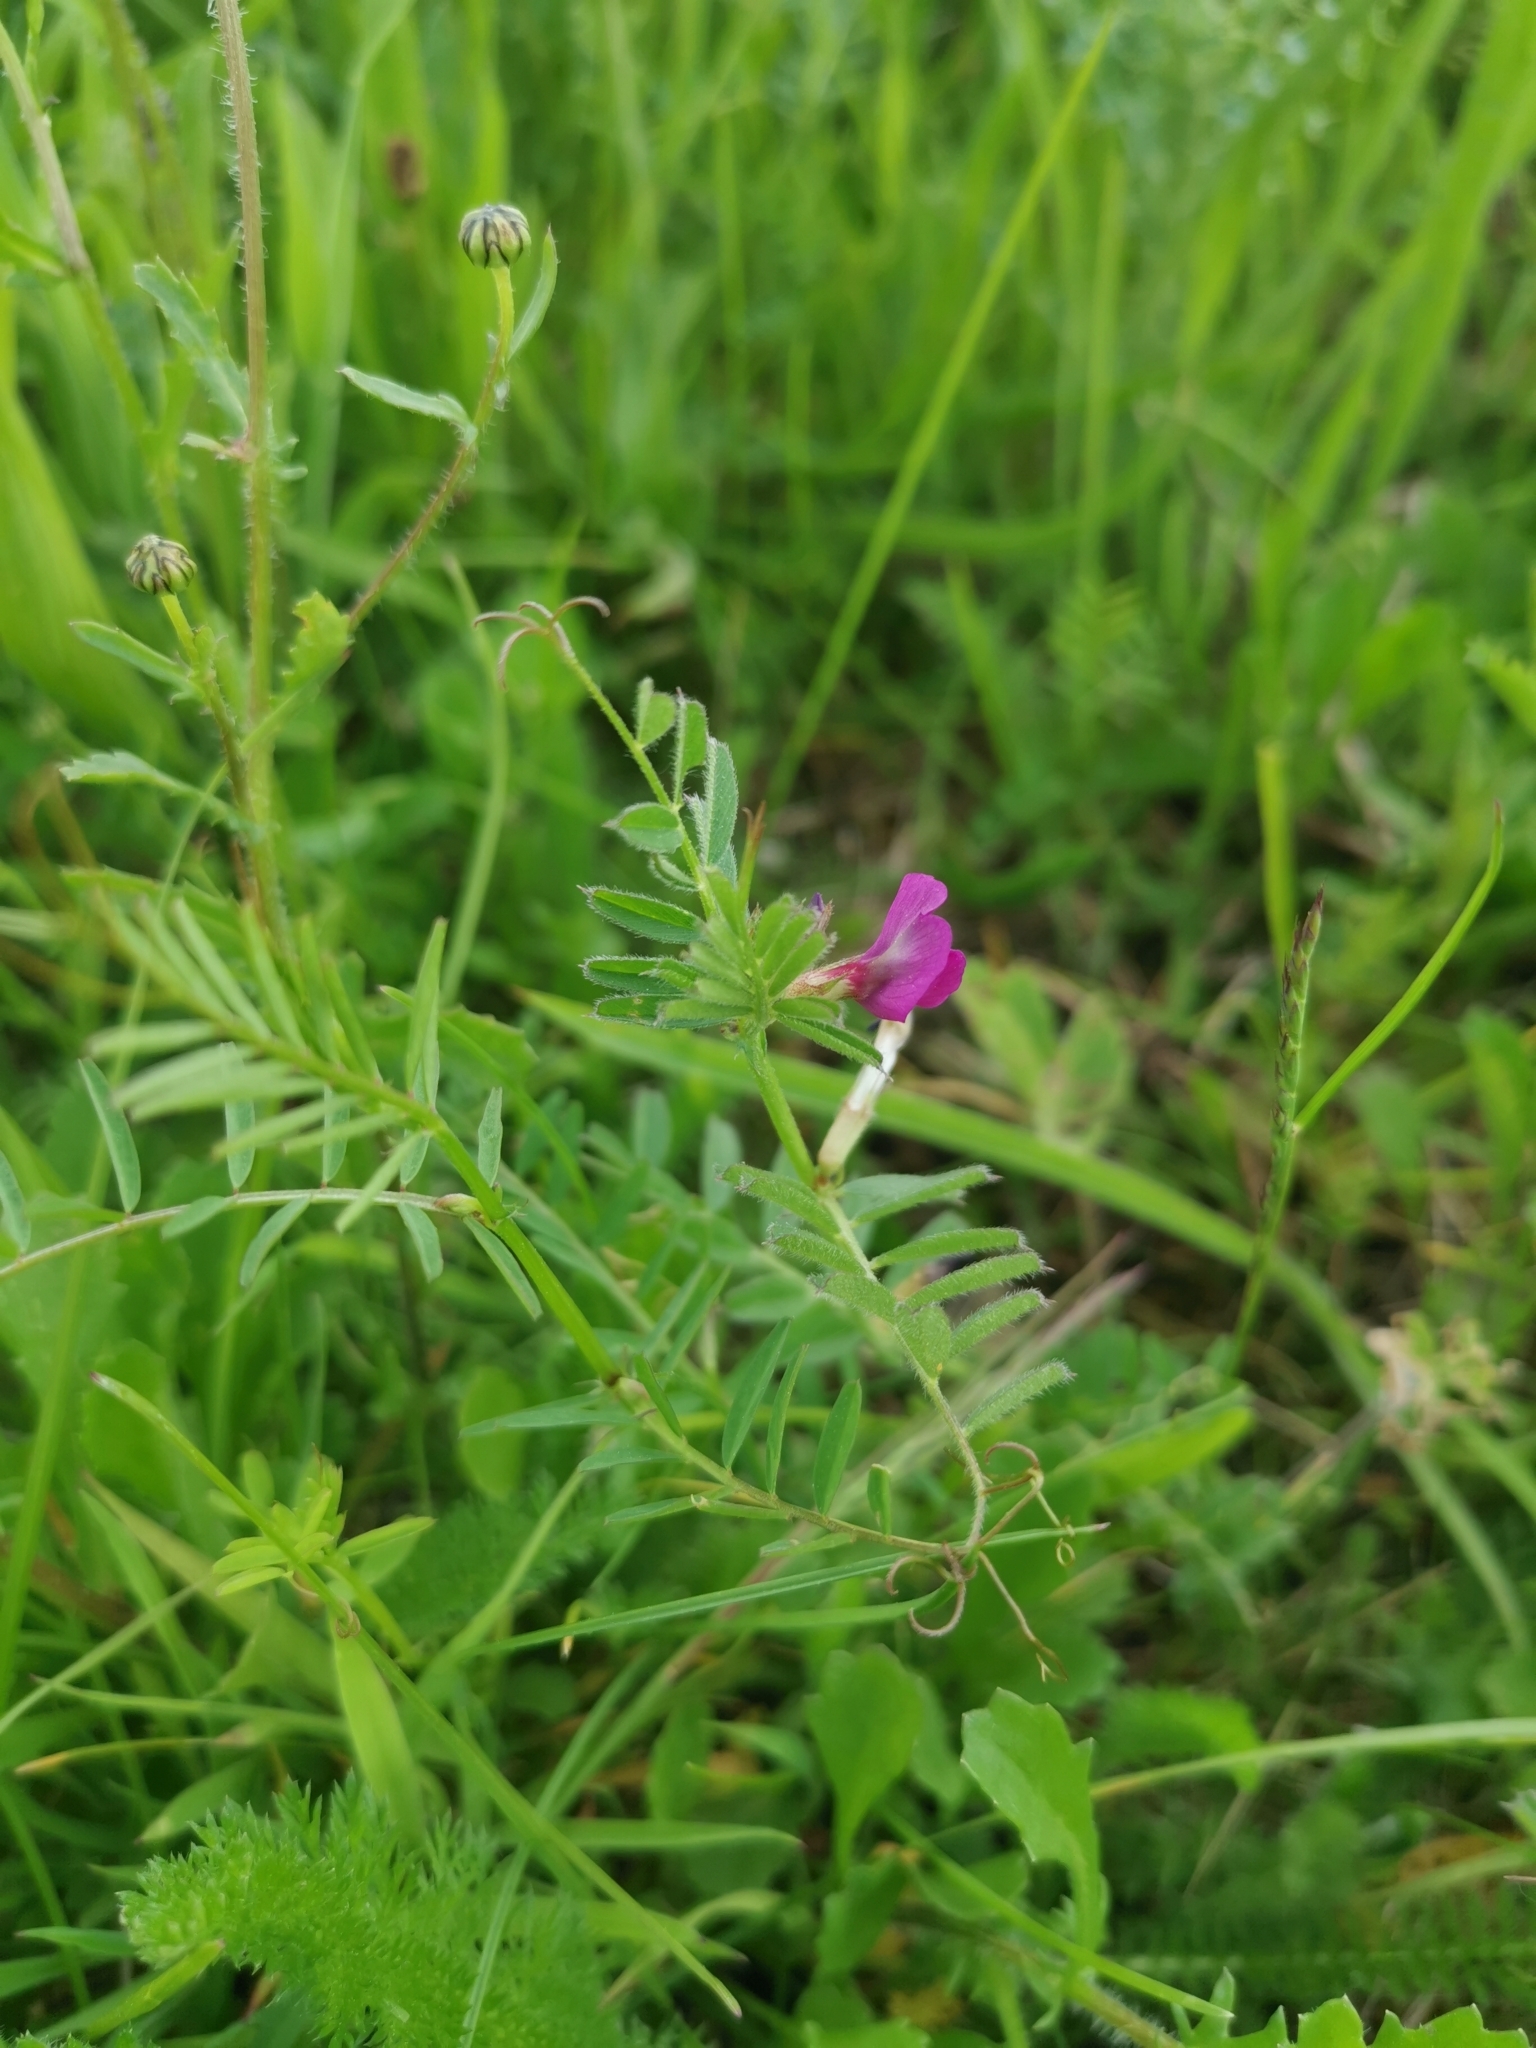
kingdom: Plantae
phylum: Tracheophyta
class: Magnoliopsida
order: Fabales
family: Fabaceae
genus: Vicia
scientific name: Vicia sativa
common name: Garden vetch
